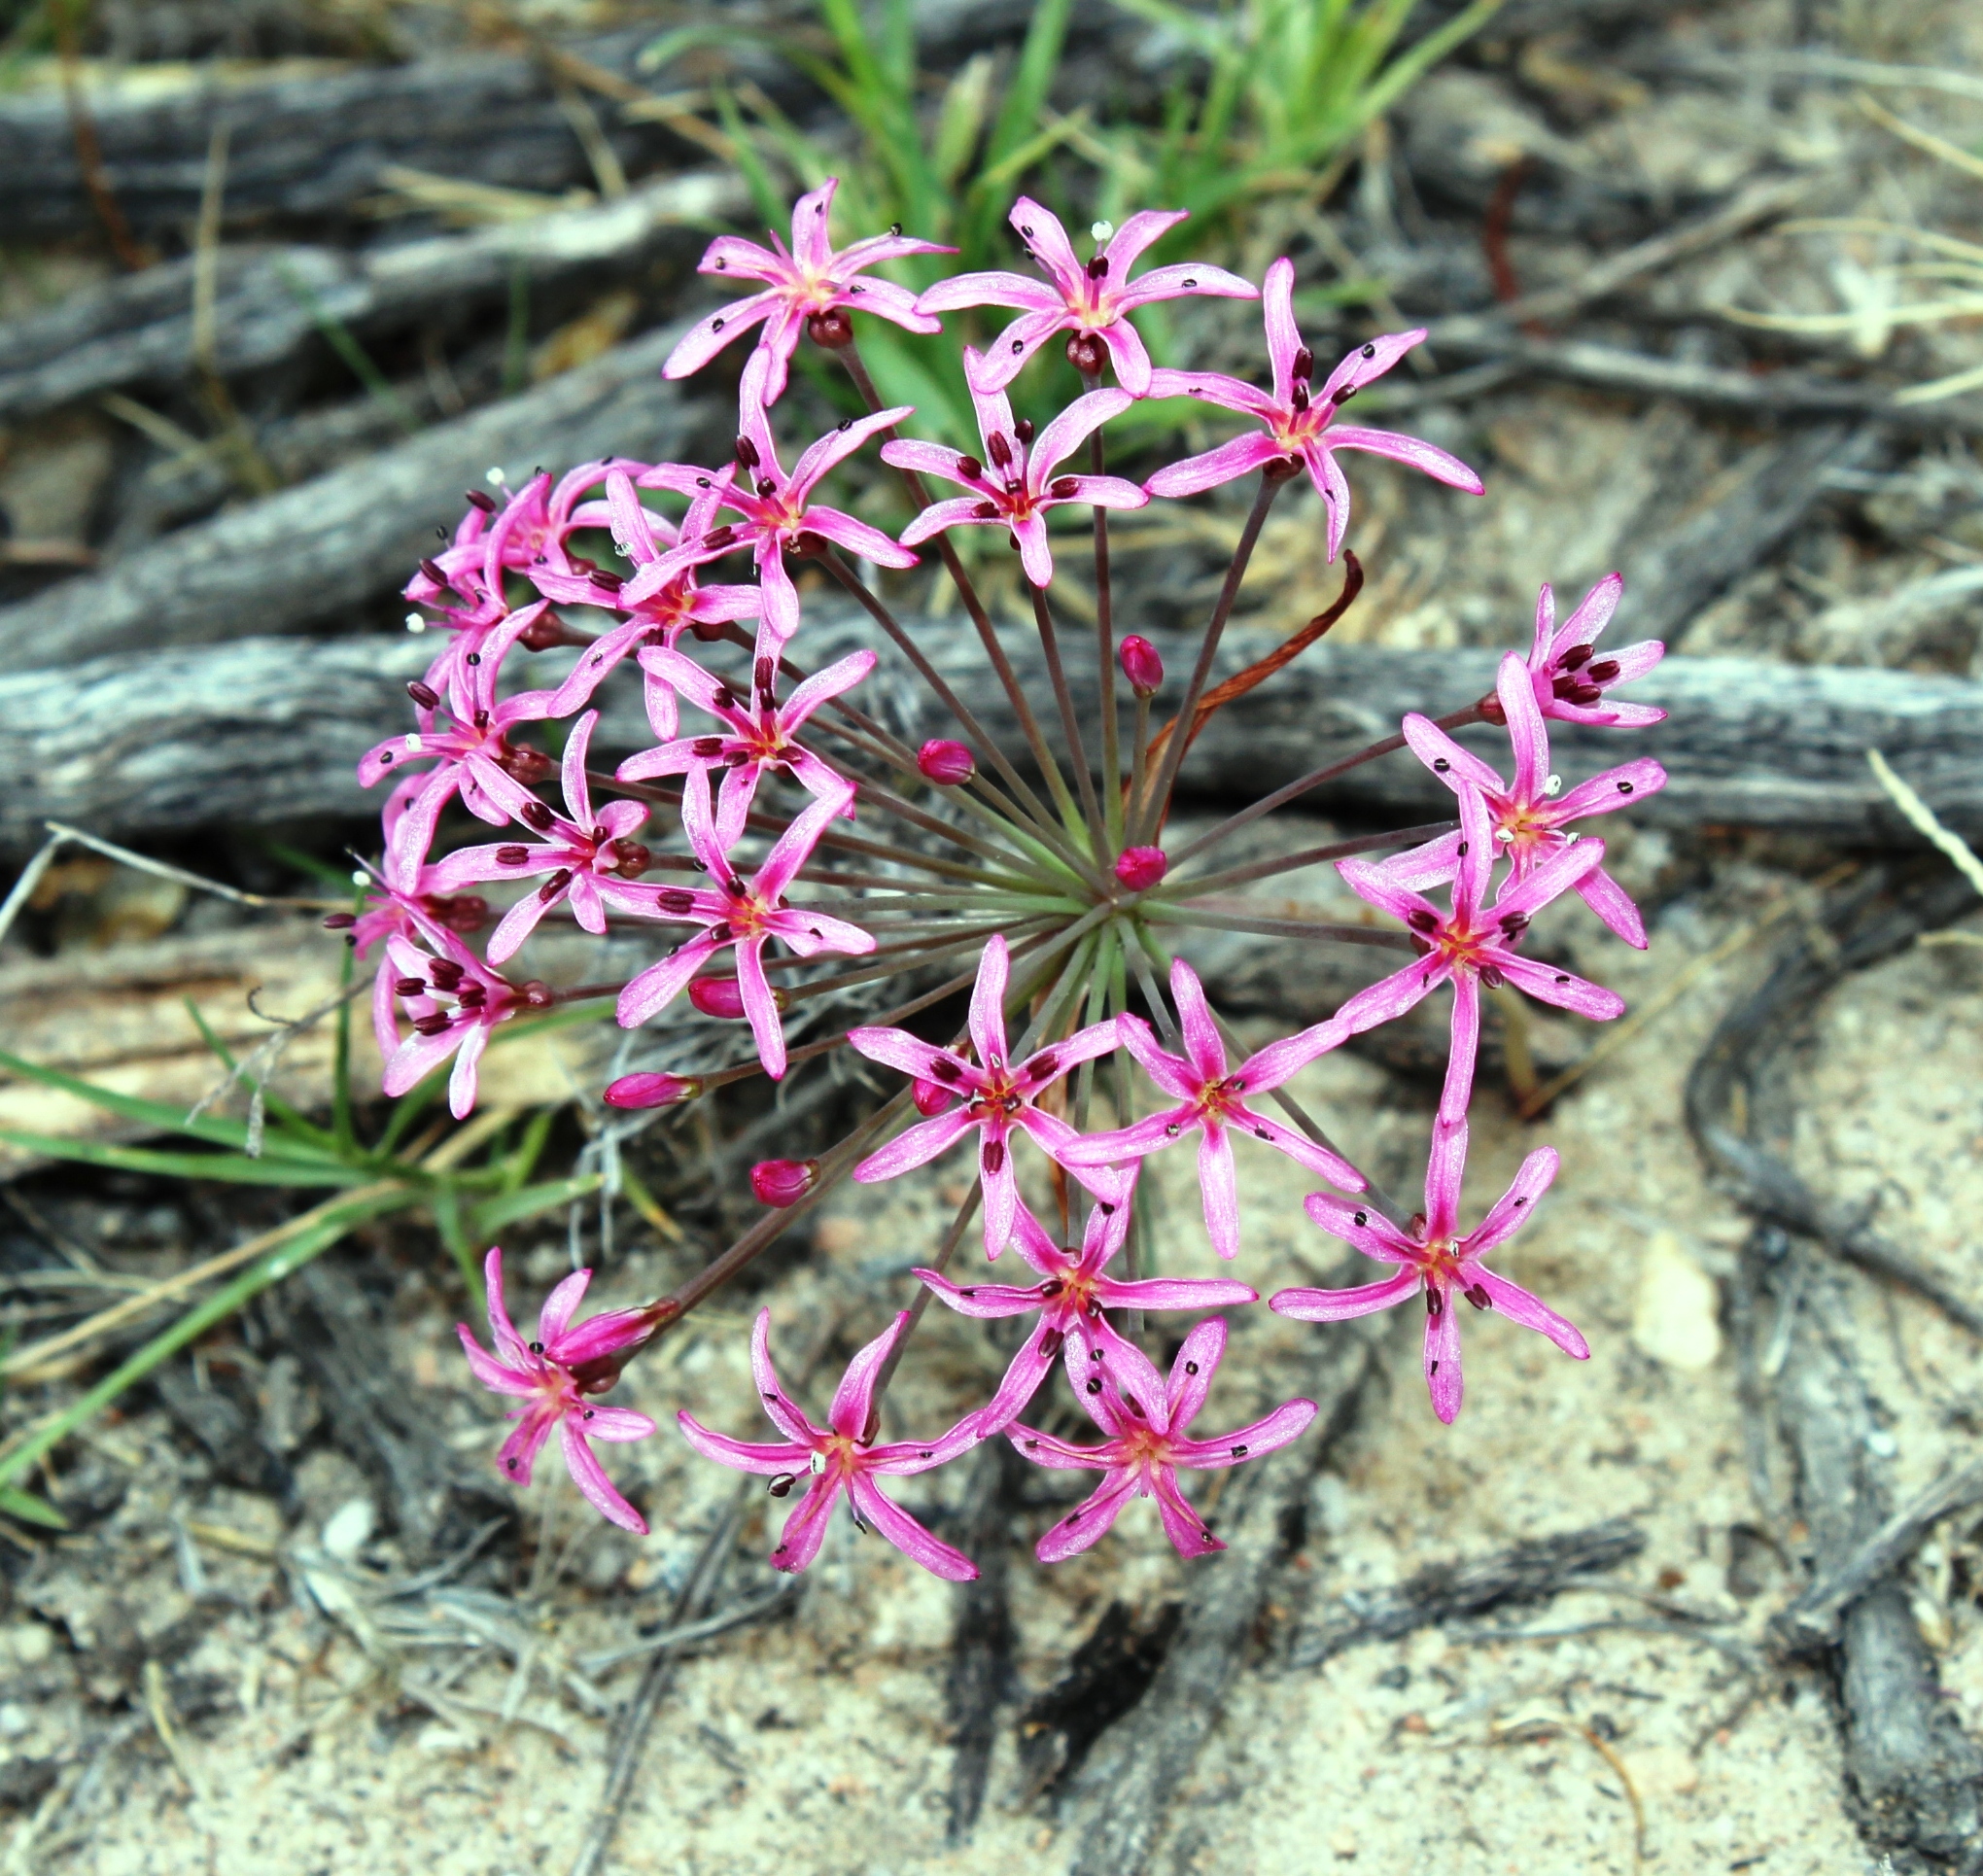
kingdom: Plantae
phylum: Tracheophyta
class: Liliopsida
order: Asparagales
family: Amaryllidaceae
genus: Hessea
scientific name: Hessea stellaris
